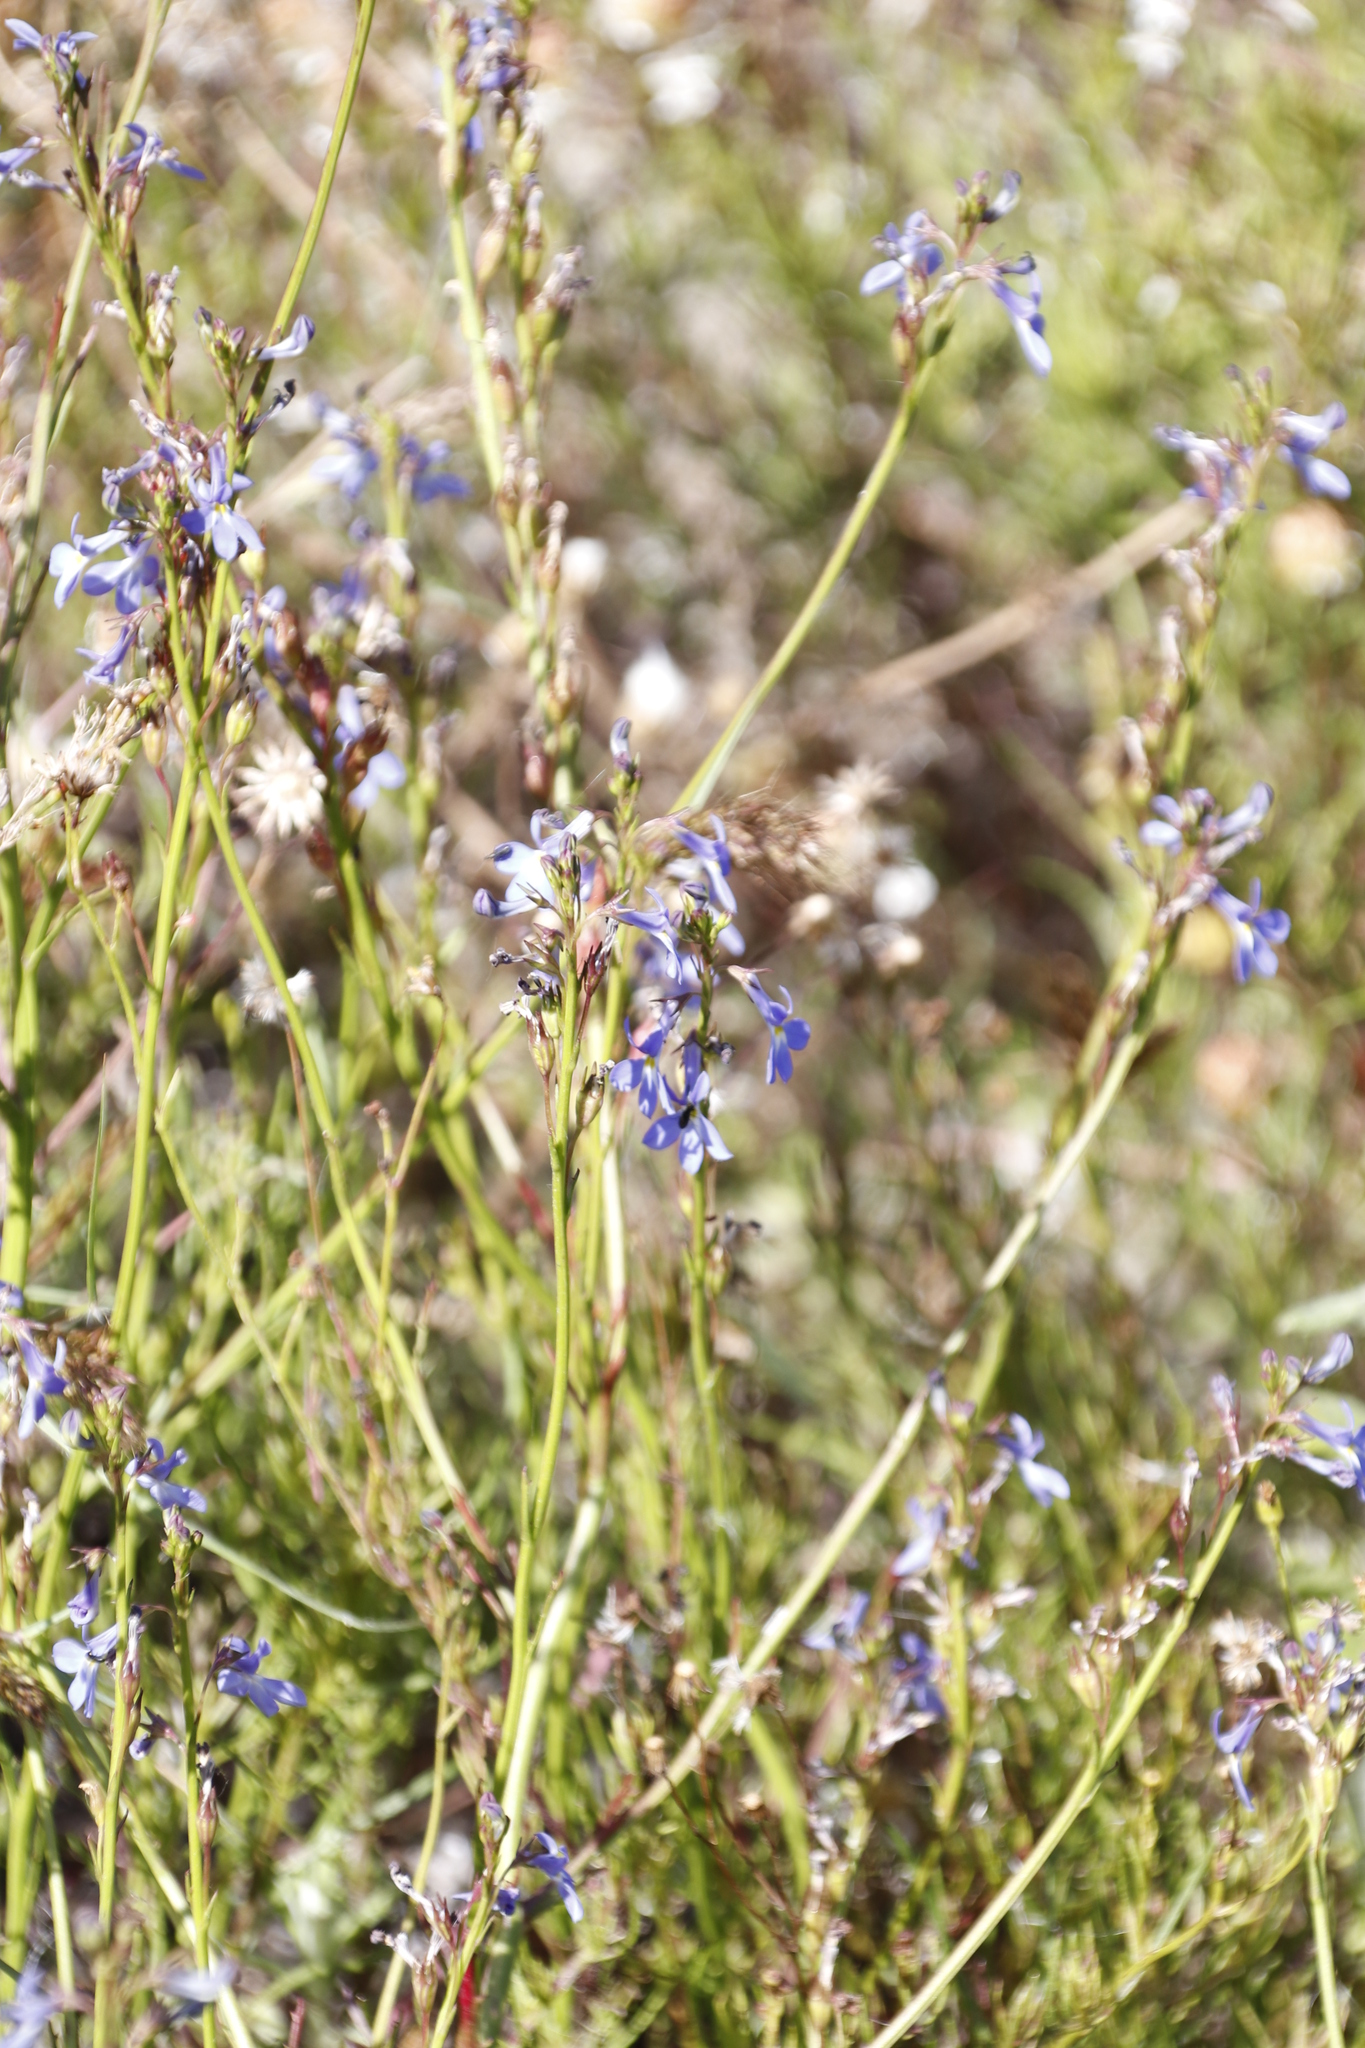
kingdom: Plantae
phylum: Tracheophyta
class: Magnoliopsida
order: Asterales
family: Campanulaceae
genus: Lobelia
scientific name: Lobelia comosa
